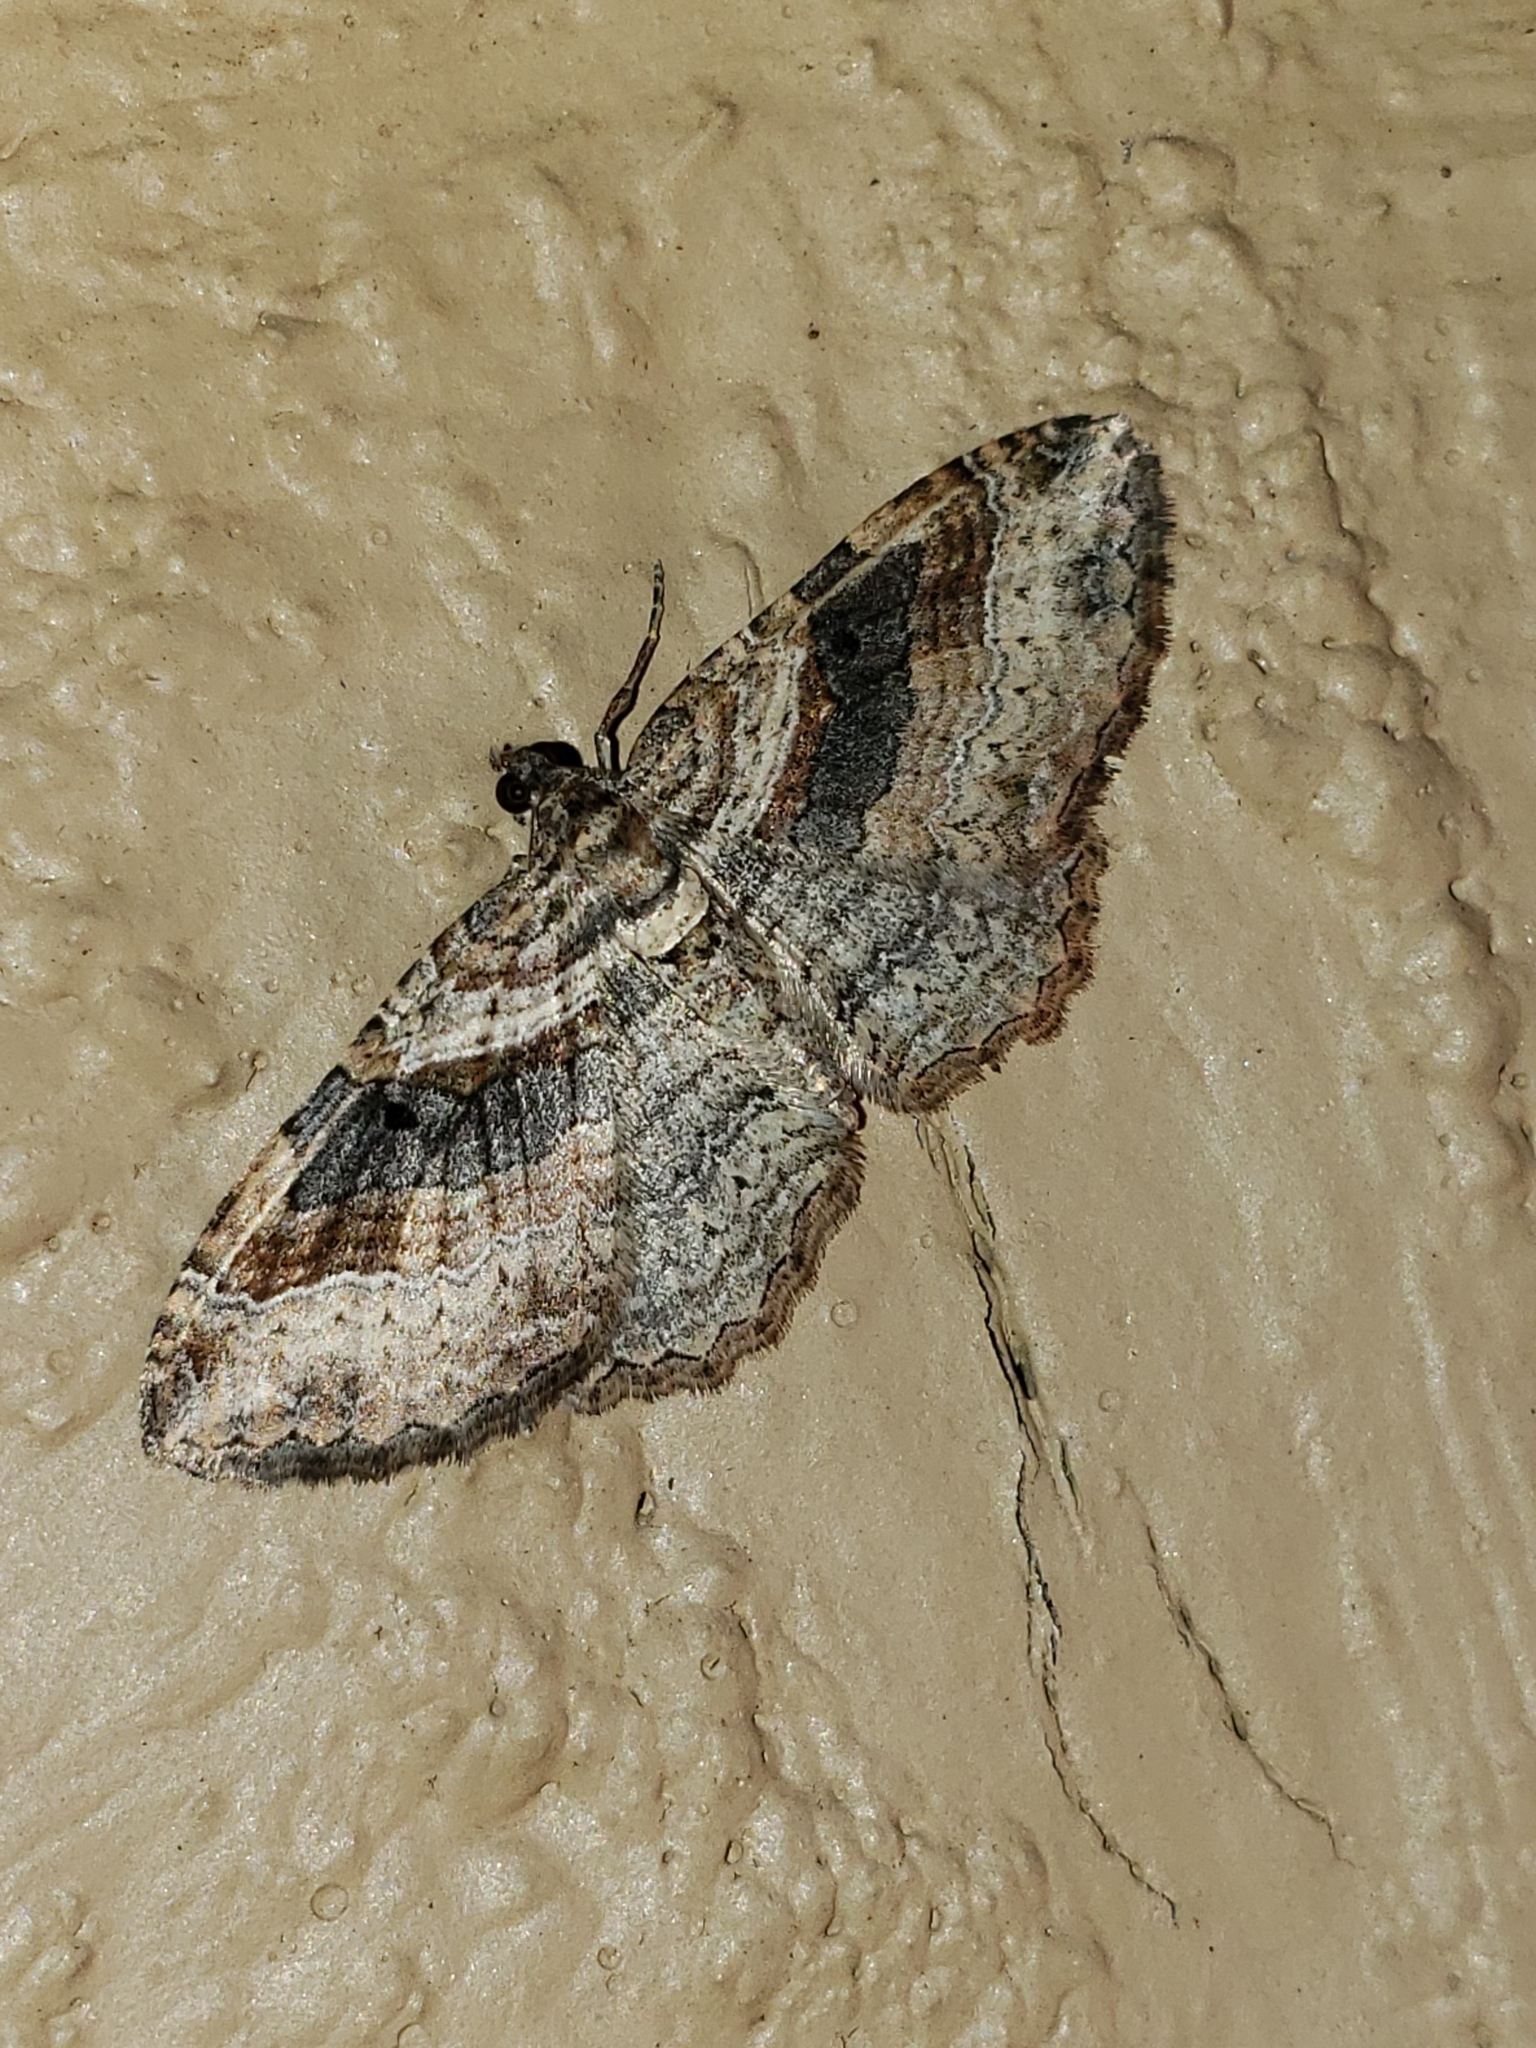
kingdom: Animalia
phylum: Arthropoda
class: Insecta
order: Lepidoptera
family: Geometridae
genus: Costaconvexa
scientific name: Costaconvexa centrostrigaria
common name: Bent-line carpet
